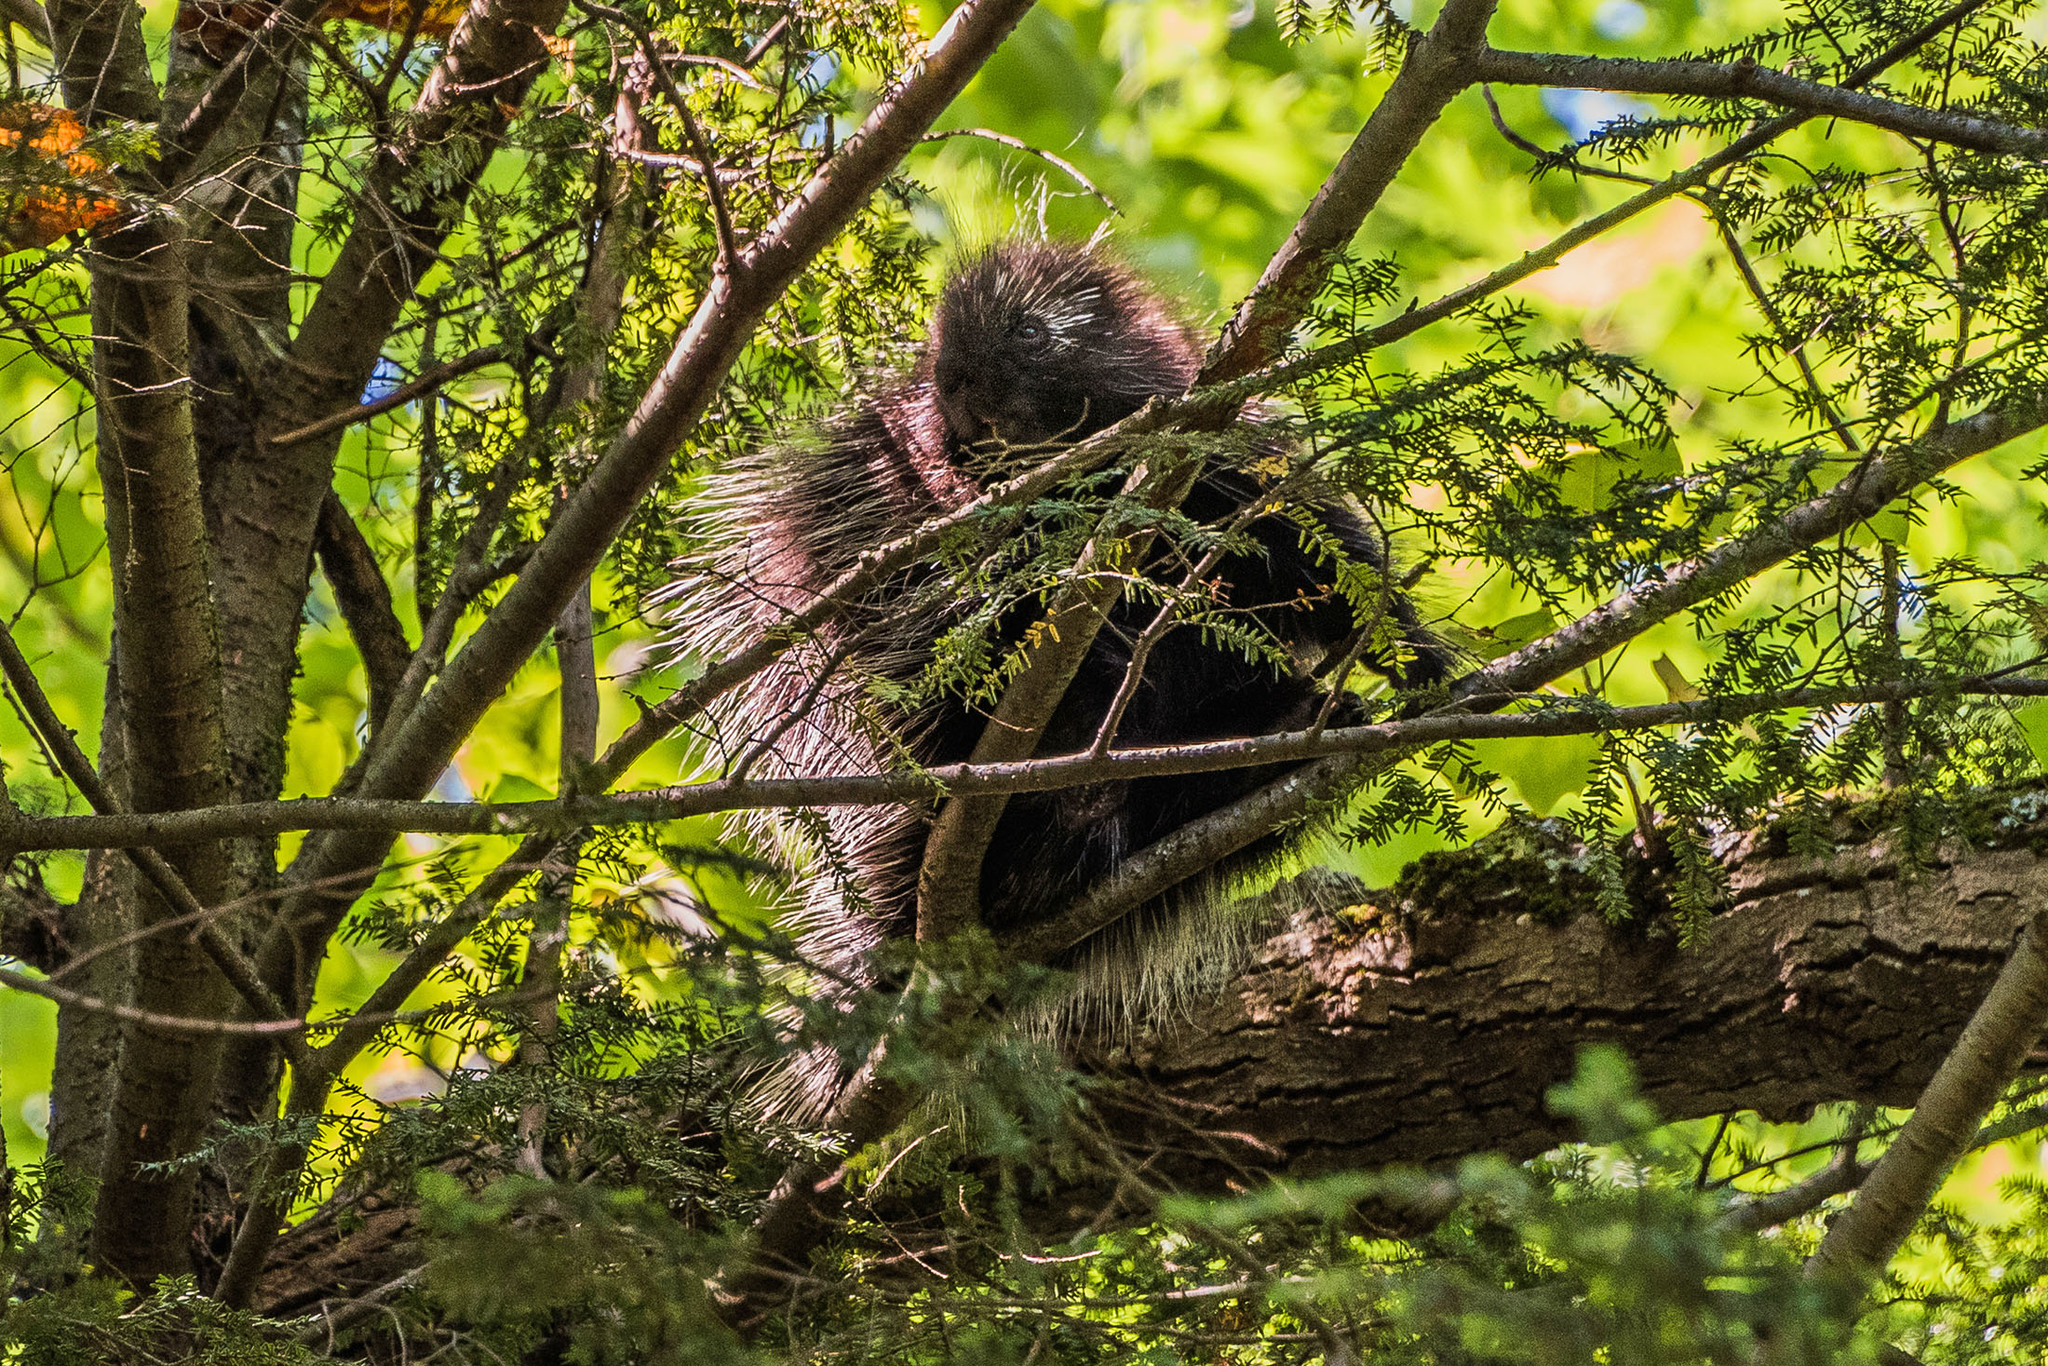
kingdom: Animalia
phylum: Chordata
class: Mammalia
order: Rodentia
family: Erethizontidae
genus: Erethizon
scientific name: Erethizon dorsatus
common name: North american porcupine
